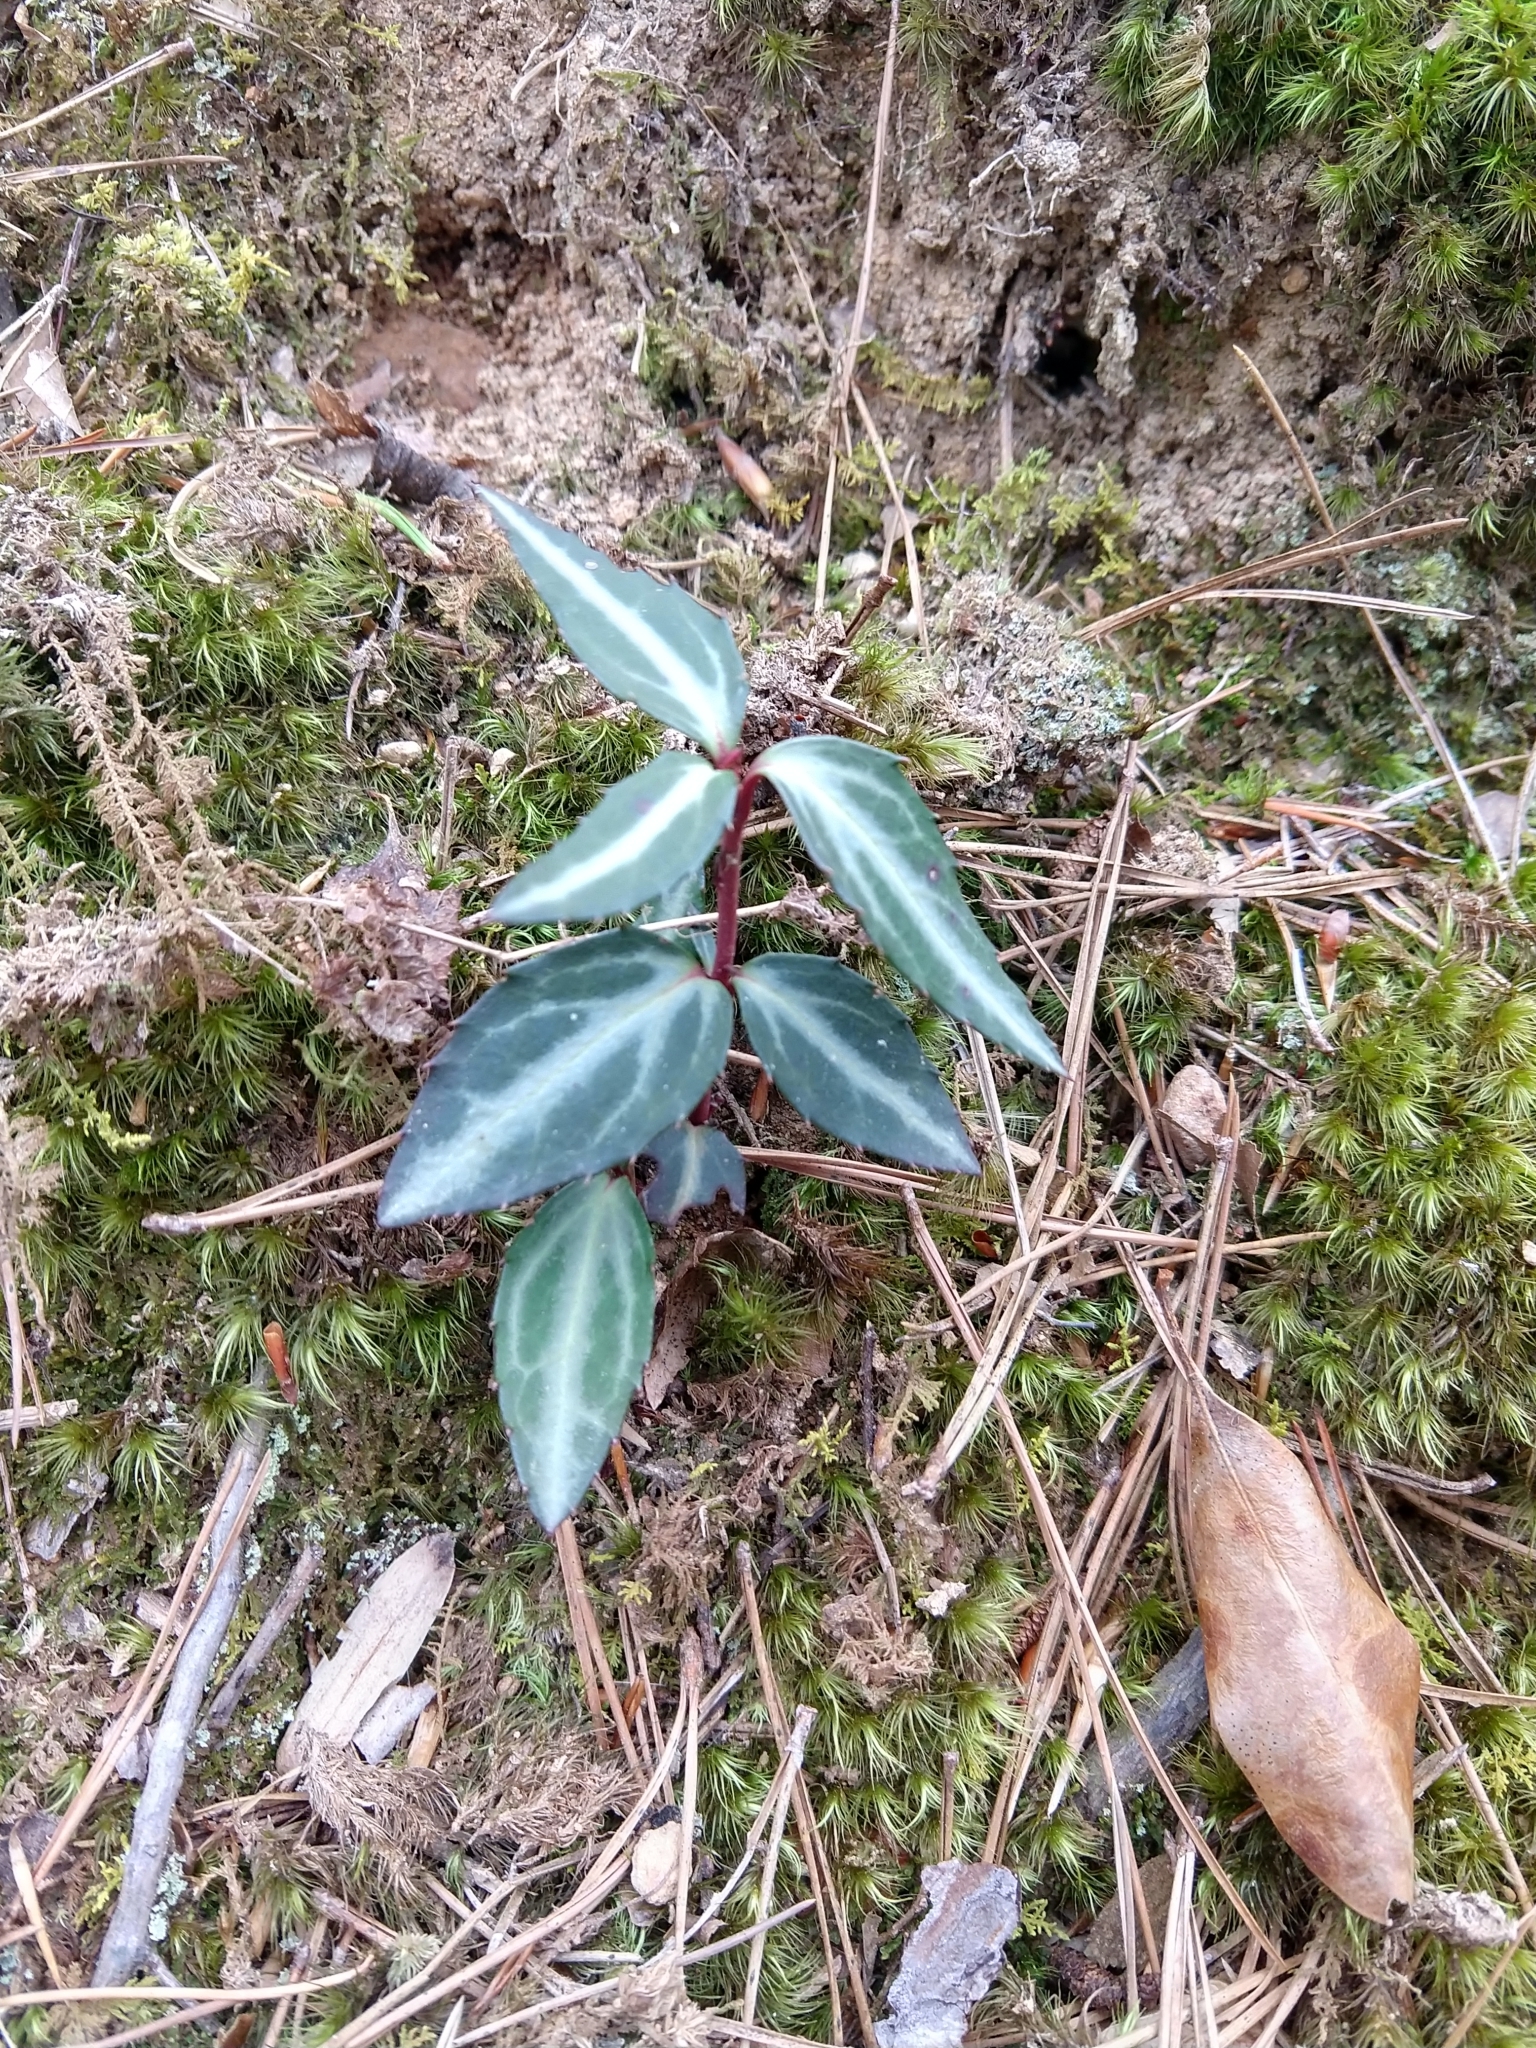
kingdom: Plantae
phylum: Tracheophyta
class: Magnoliopsida
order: Ericales
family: Ericaceae
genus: Chimaphila
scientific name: Chimaphila maculata
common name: Spotted pipsissewa
